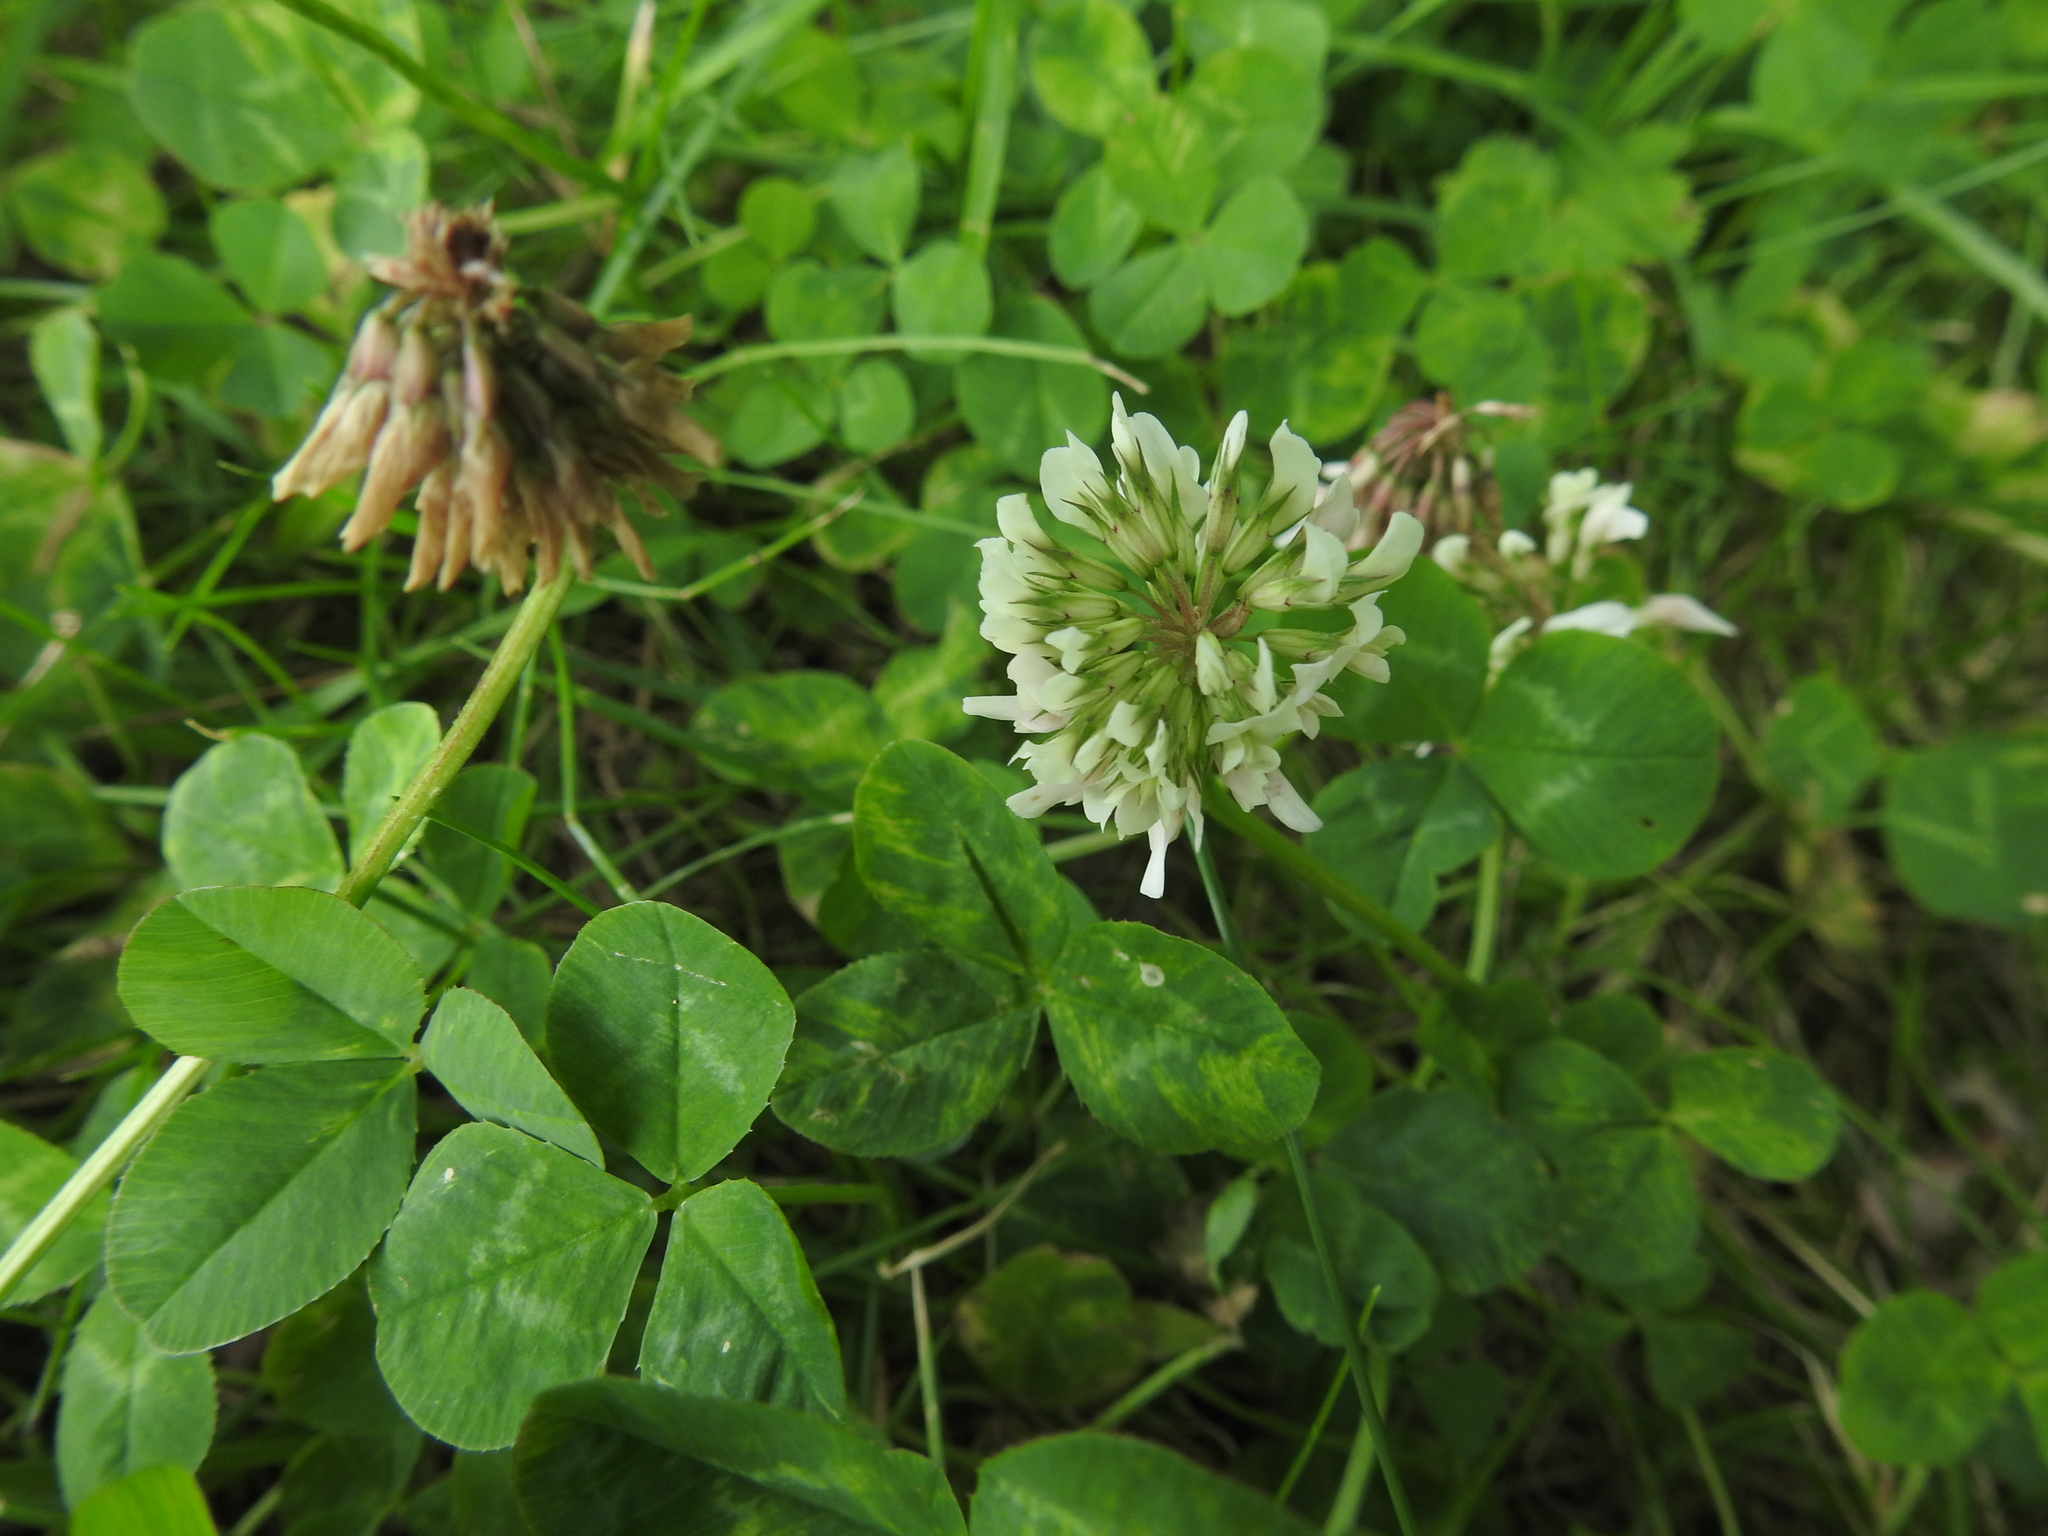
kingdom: Plantae
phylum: Tracheophyta
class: Magnoliopsida
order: Fabales
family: Fabaceae
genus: Trifolium
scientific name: Trifolium repens
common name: White clover
